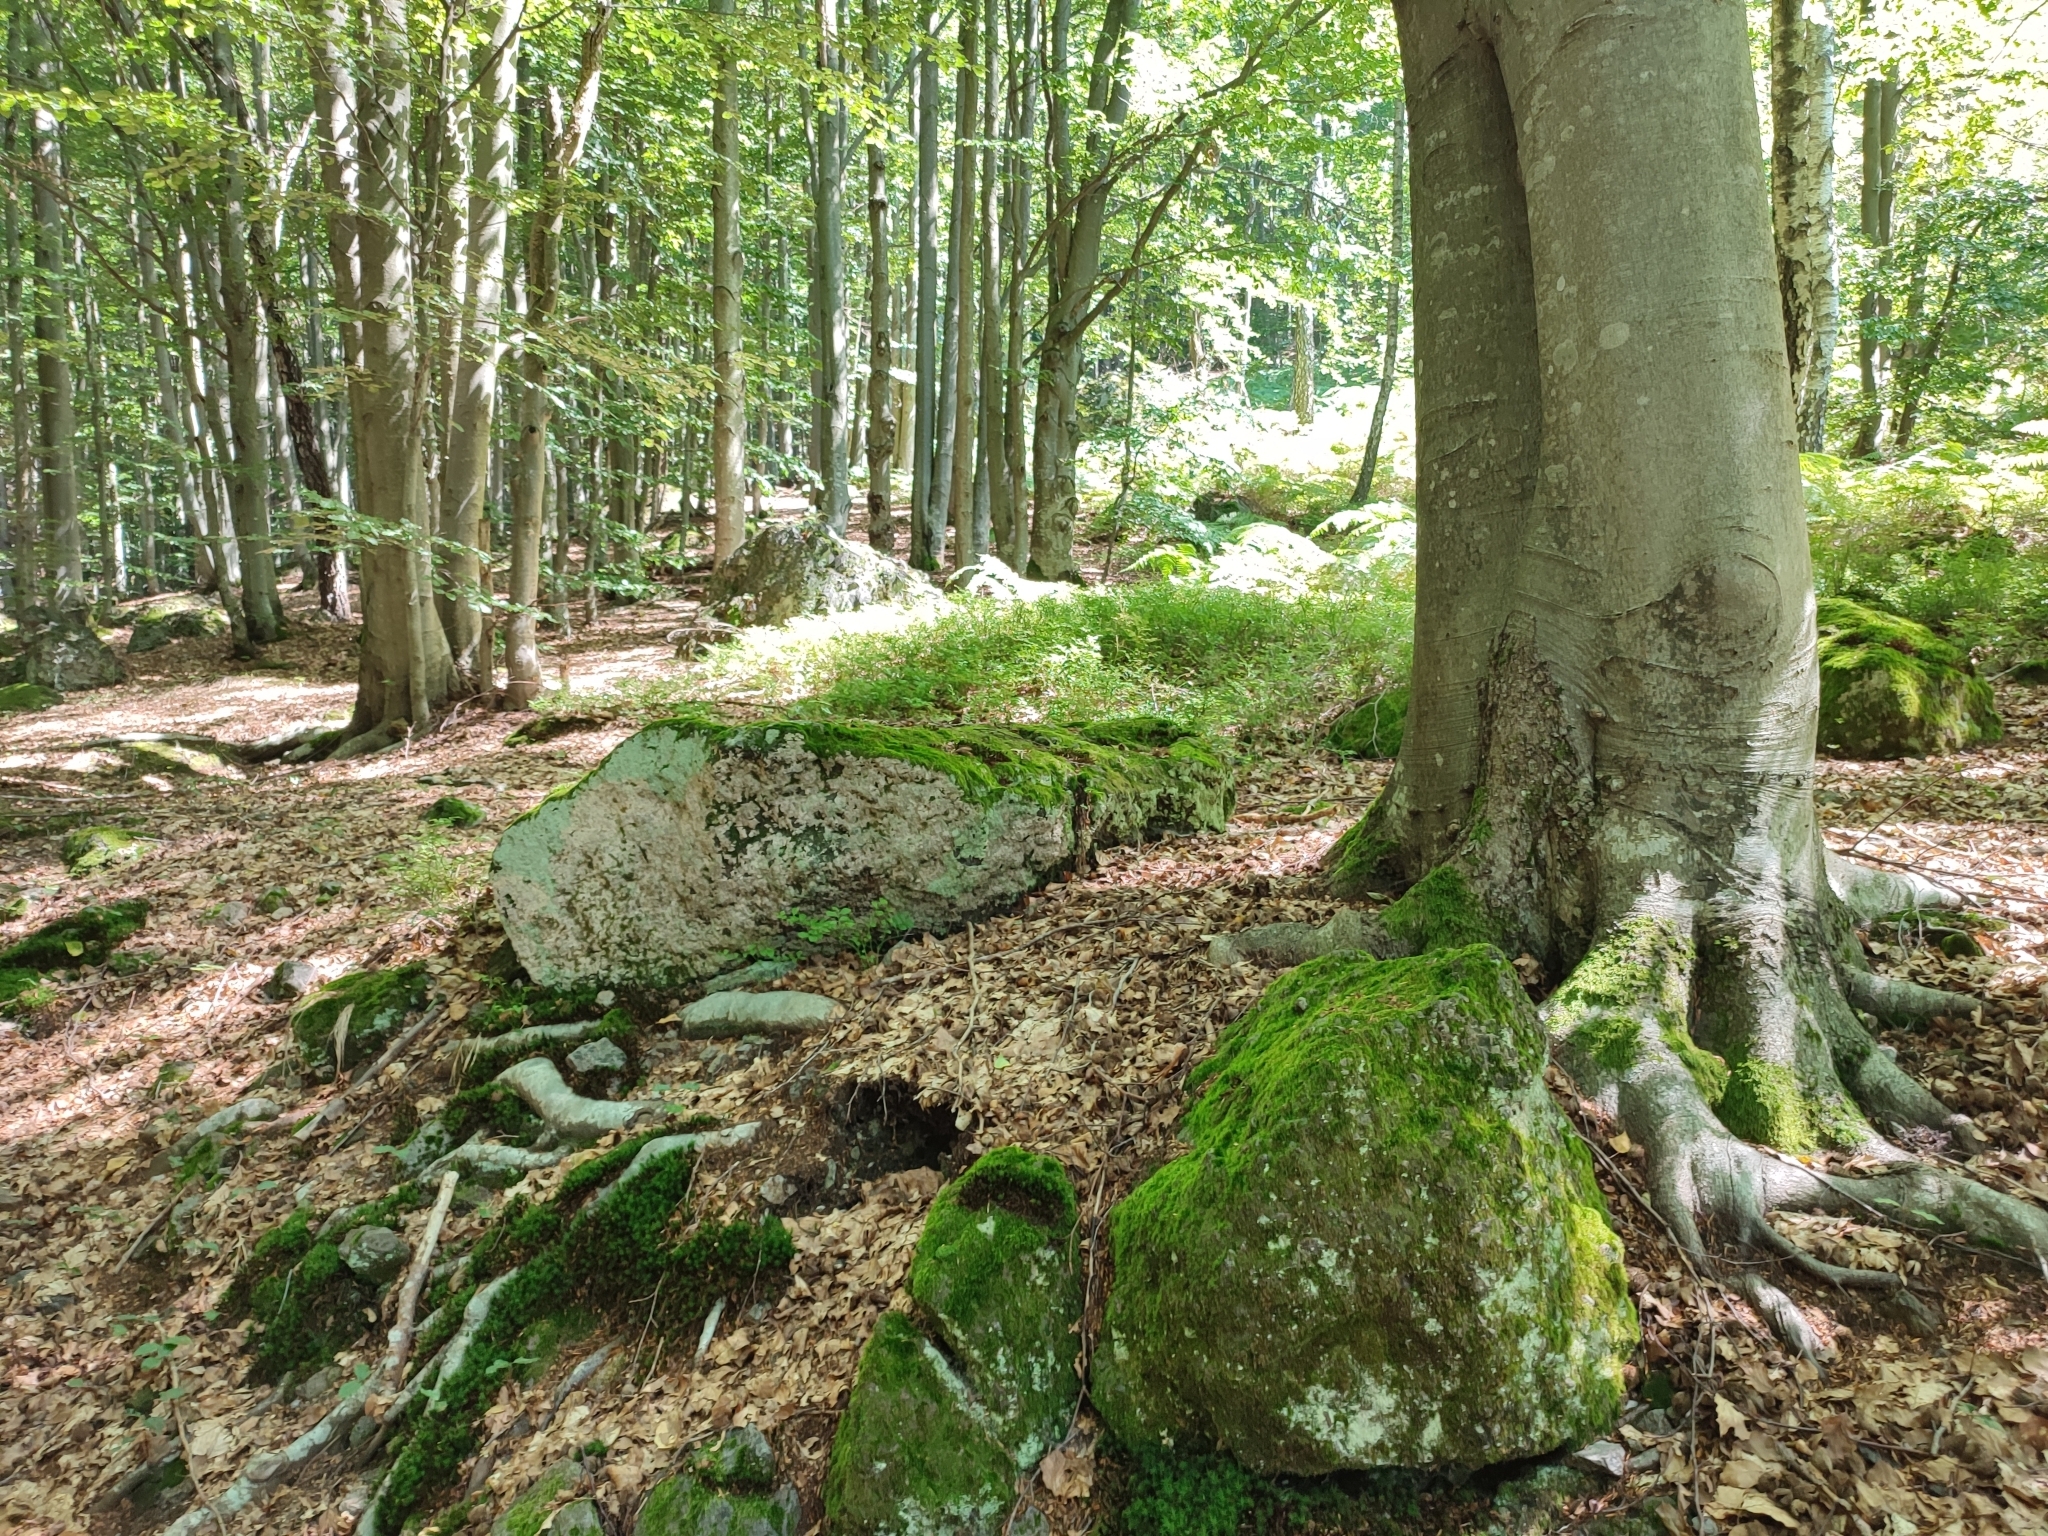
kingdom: Plantae
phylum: Tracheophyta
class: Magnoliopsida
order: Fagales
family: Fagaceae
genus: Fagus
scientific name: Fagus sylvatica
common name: Beech
